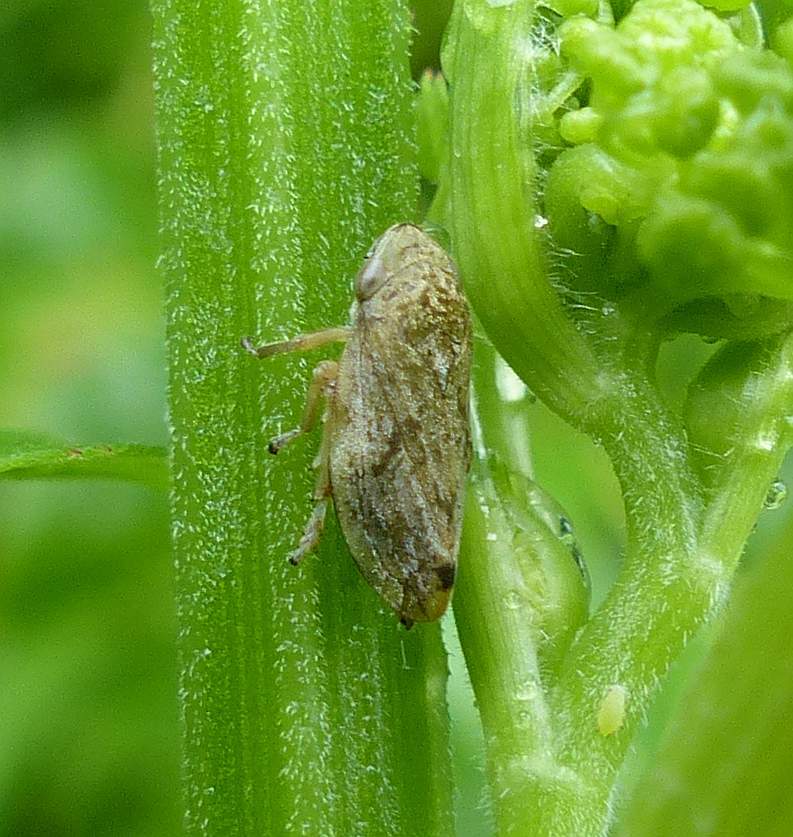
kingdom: Animalia
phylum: Arthropoda
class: Insecta
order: Hemiptera
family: Aphrophoridae
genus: Philaenus
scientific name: Philaenus spumarius
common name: Meadow spittlebug
